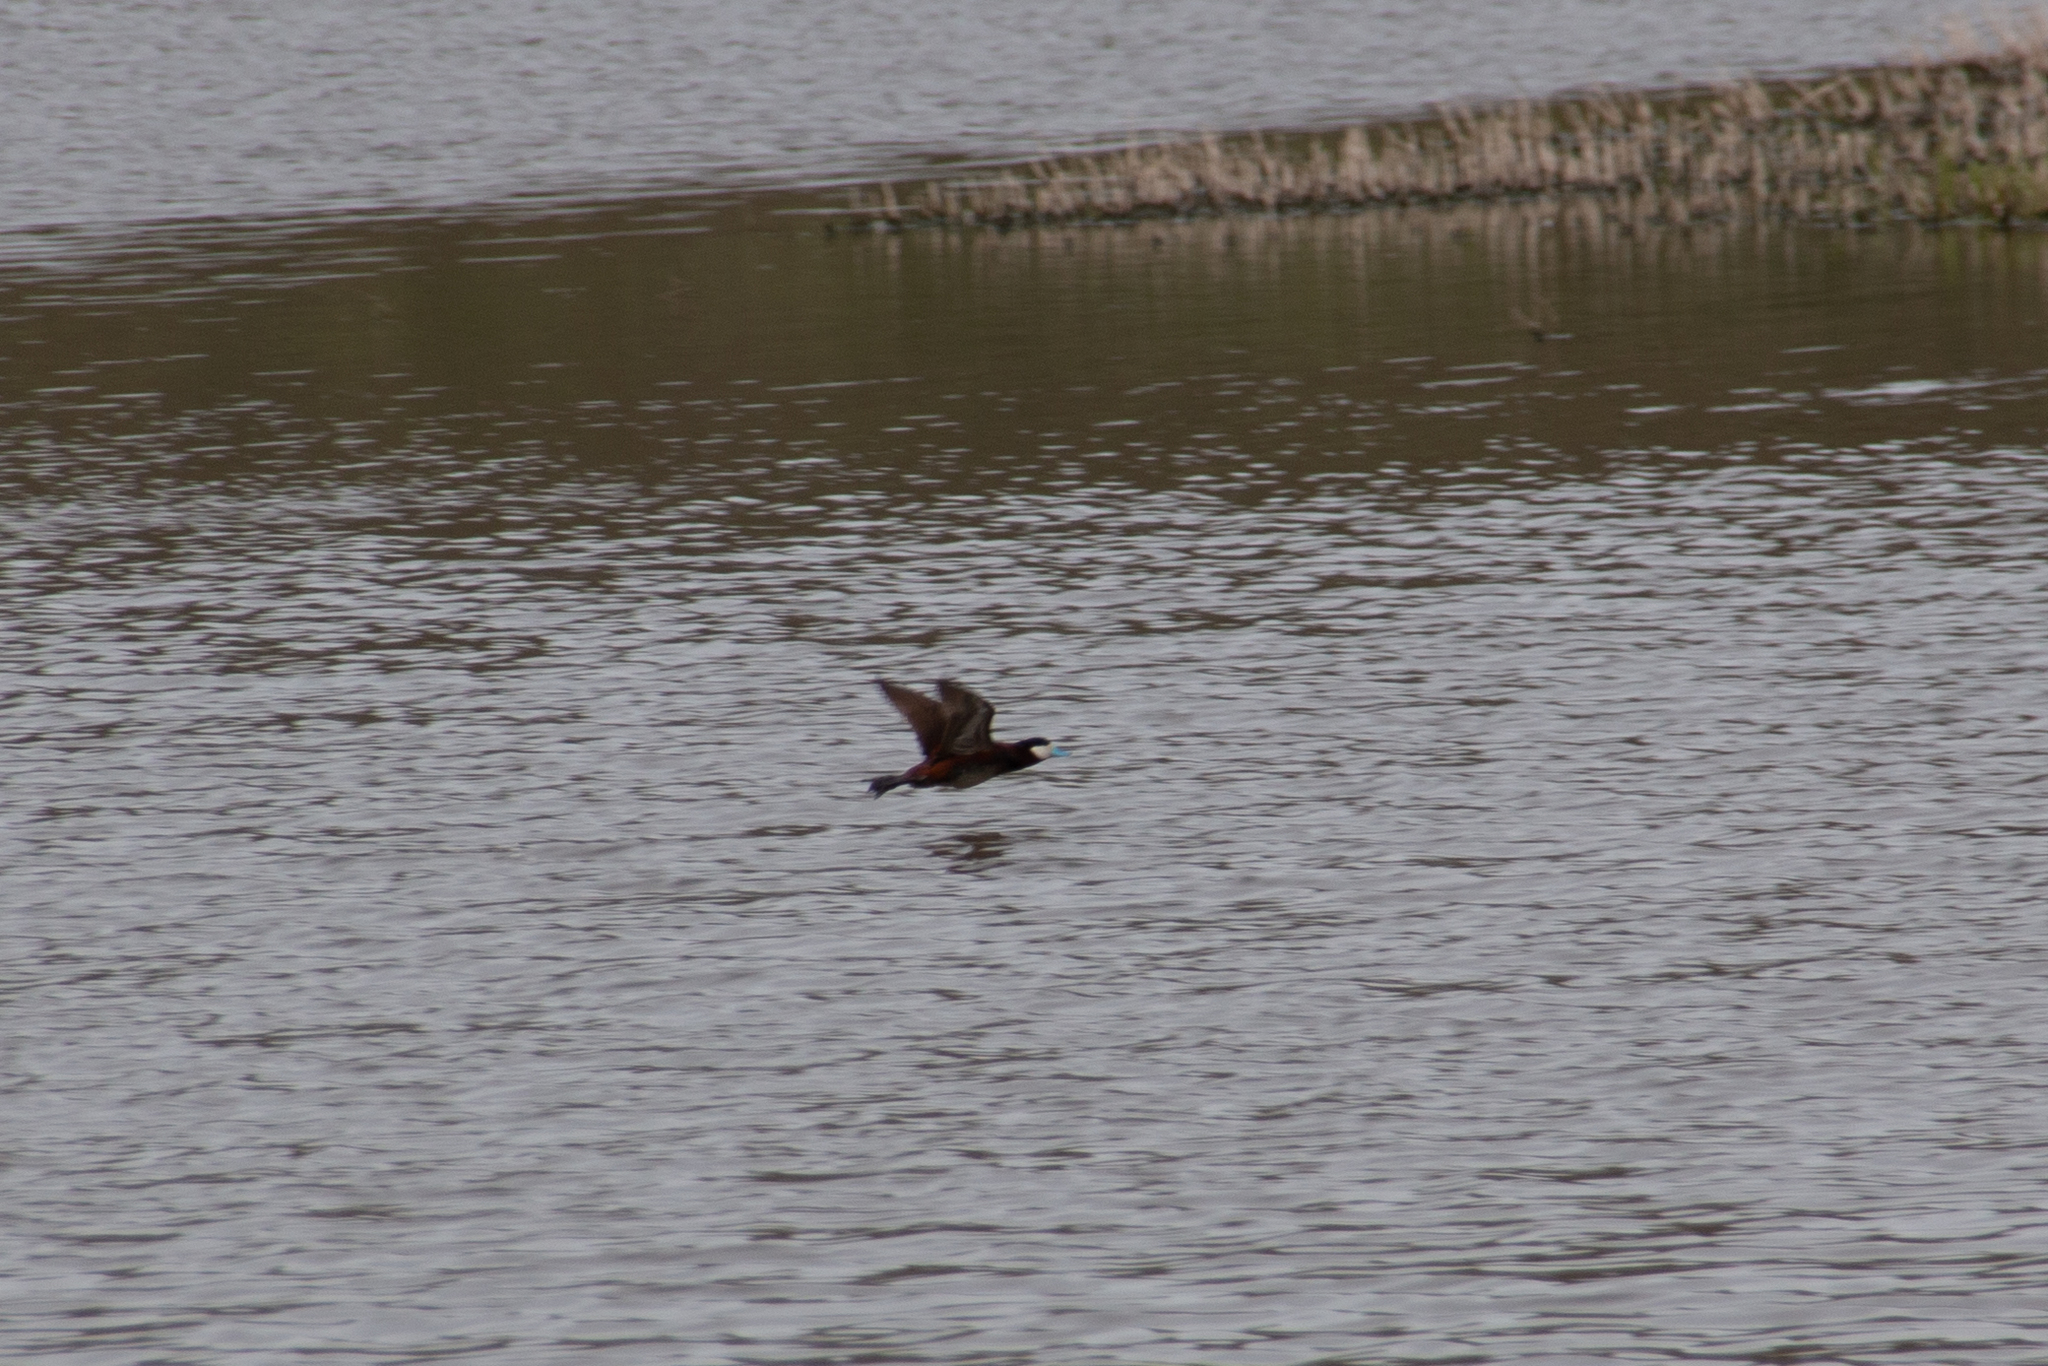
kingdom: Animalia
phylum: Chordata
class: Aves
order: Anseriformes
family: Anatidae
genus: Oxyura
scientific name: Oxyura jamaicensis
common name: Ruddy duck
